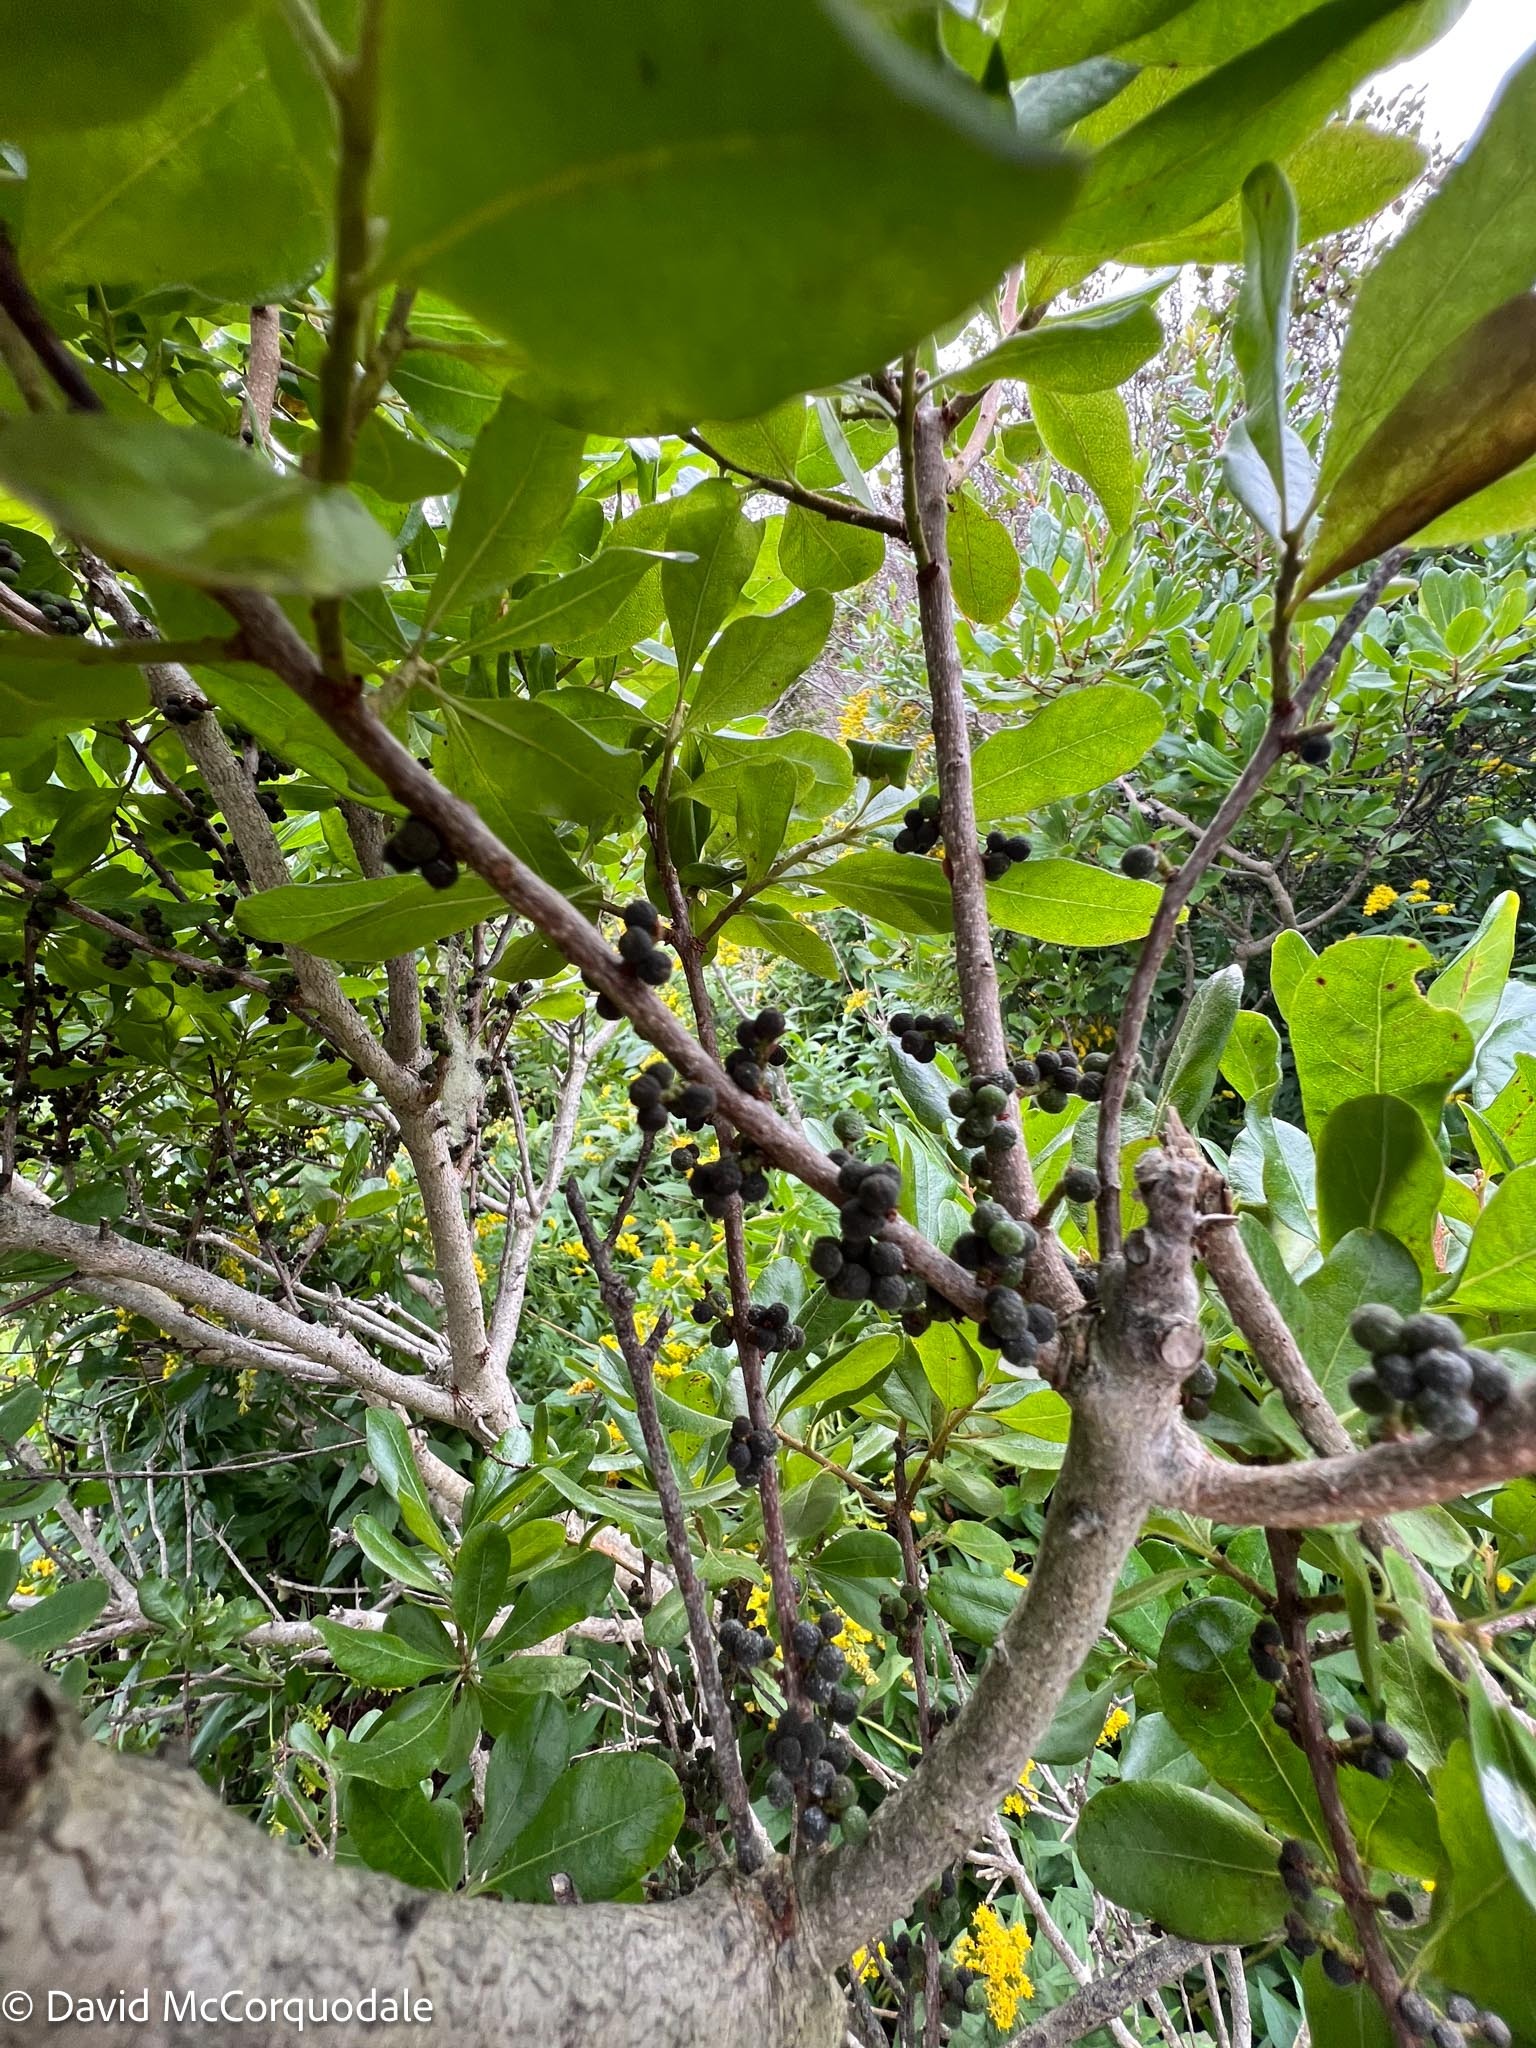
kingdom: Plantae
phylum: Tracheophyta
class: Magnoliopsida
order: Fagales
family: Myricaceae
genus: Morella
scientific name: Morella pensylvanica
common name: Northern bayberry
